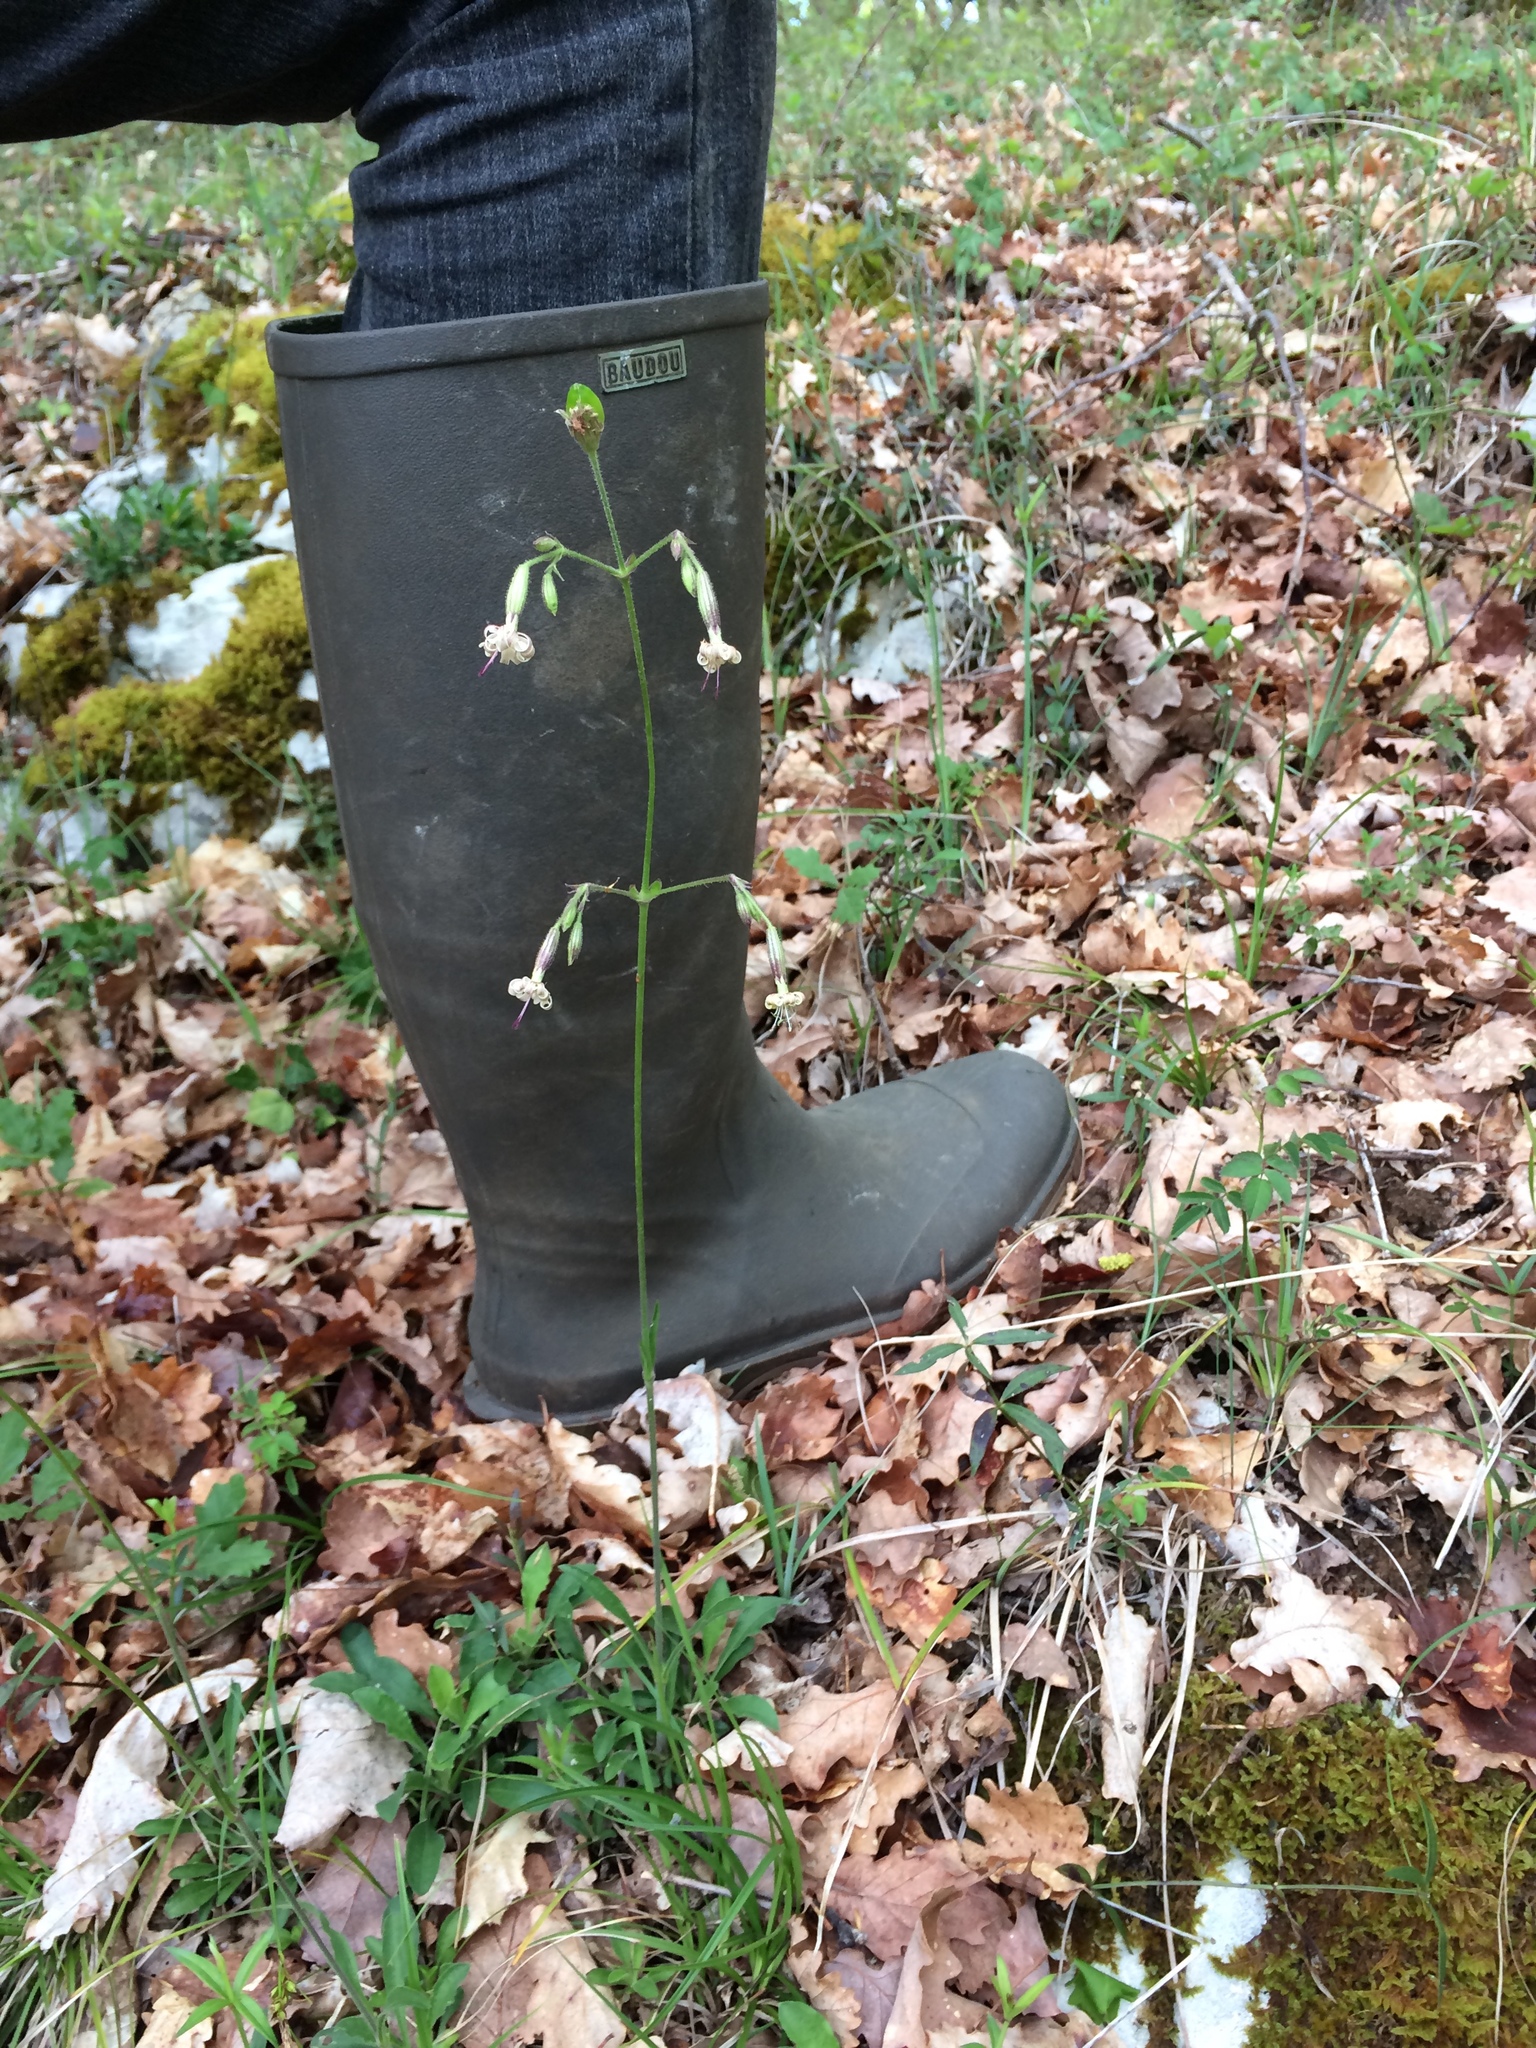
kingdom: Plantae
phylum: Tracheophyta
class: Magnoliopsida
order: Caryophyllales
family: Caryophyllaceae
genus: Silene
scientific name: Silene nutans
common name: Nottingham catchfly
